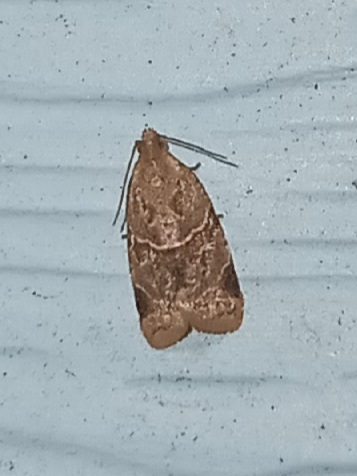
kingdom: Animalia
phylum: Arthropoda
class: Insecta
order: Lepidoptera
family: Tortricidae
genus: Clepsis
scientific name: Clepsis peritana
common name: Garden tortrix
